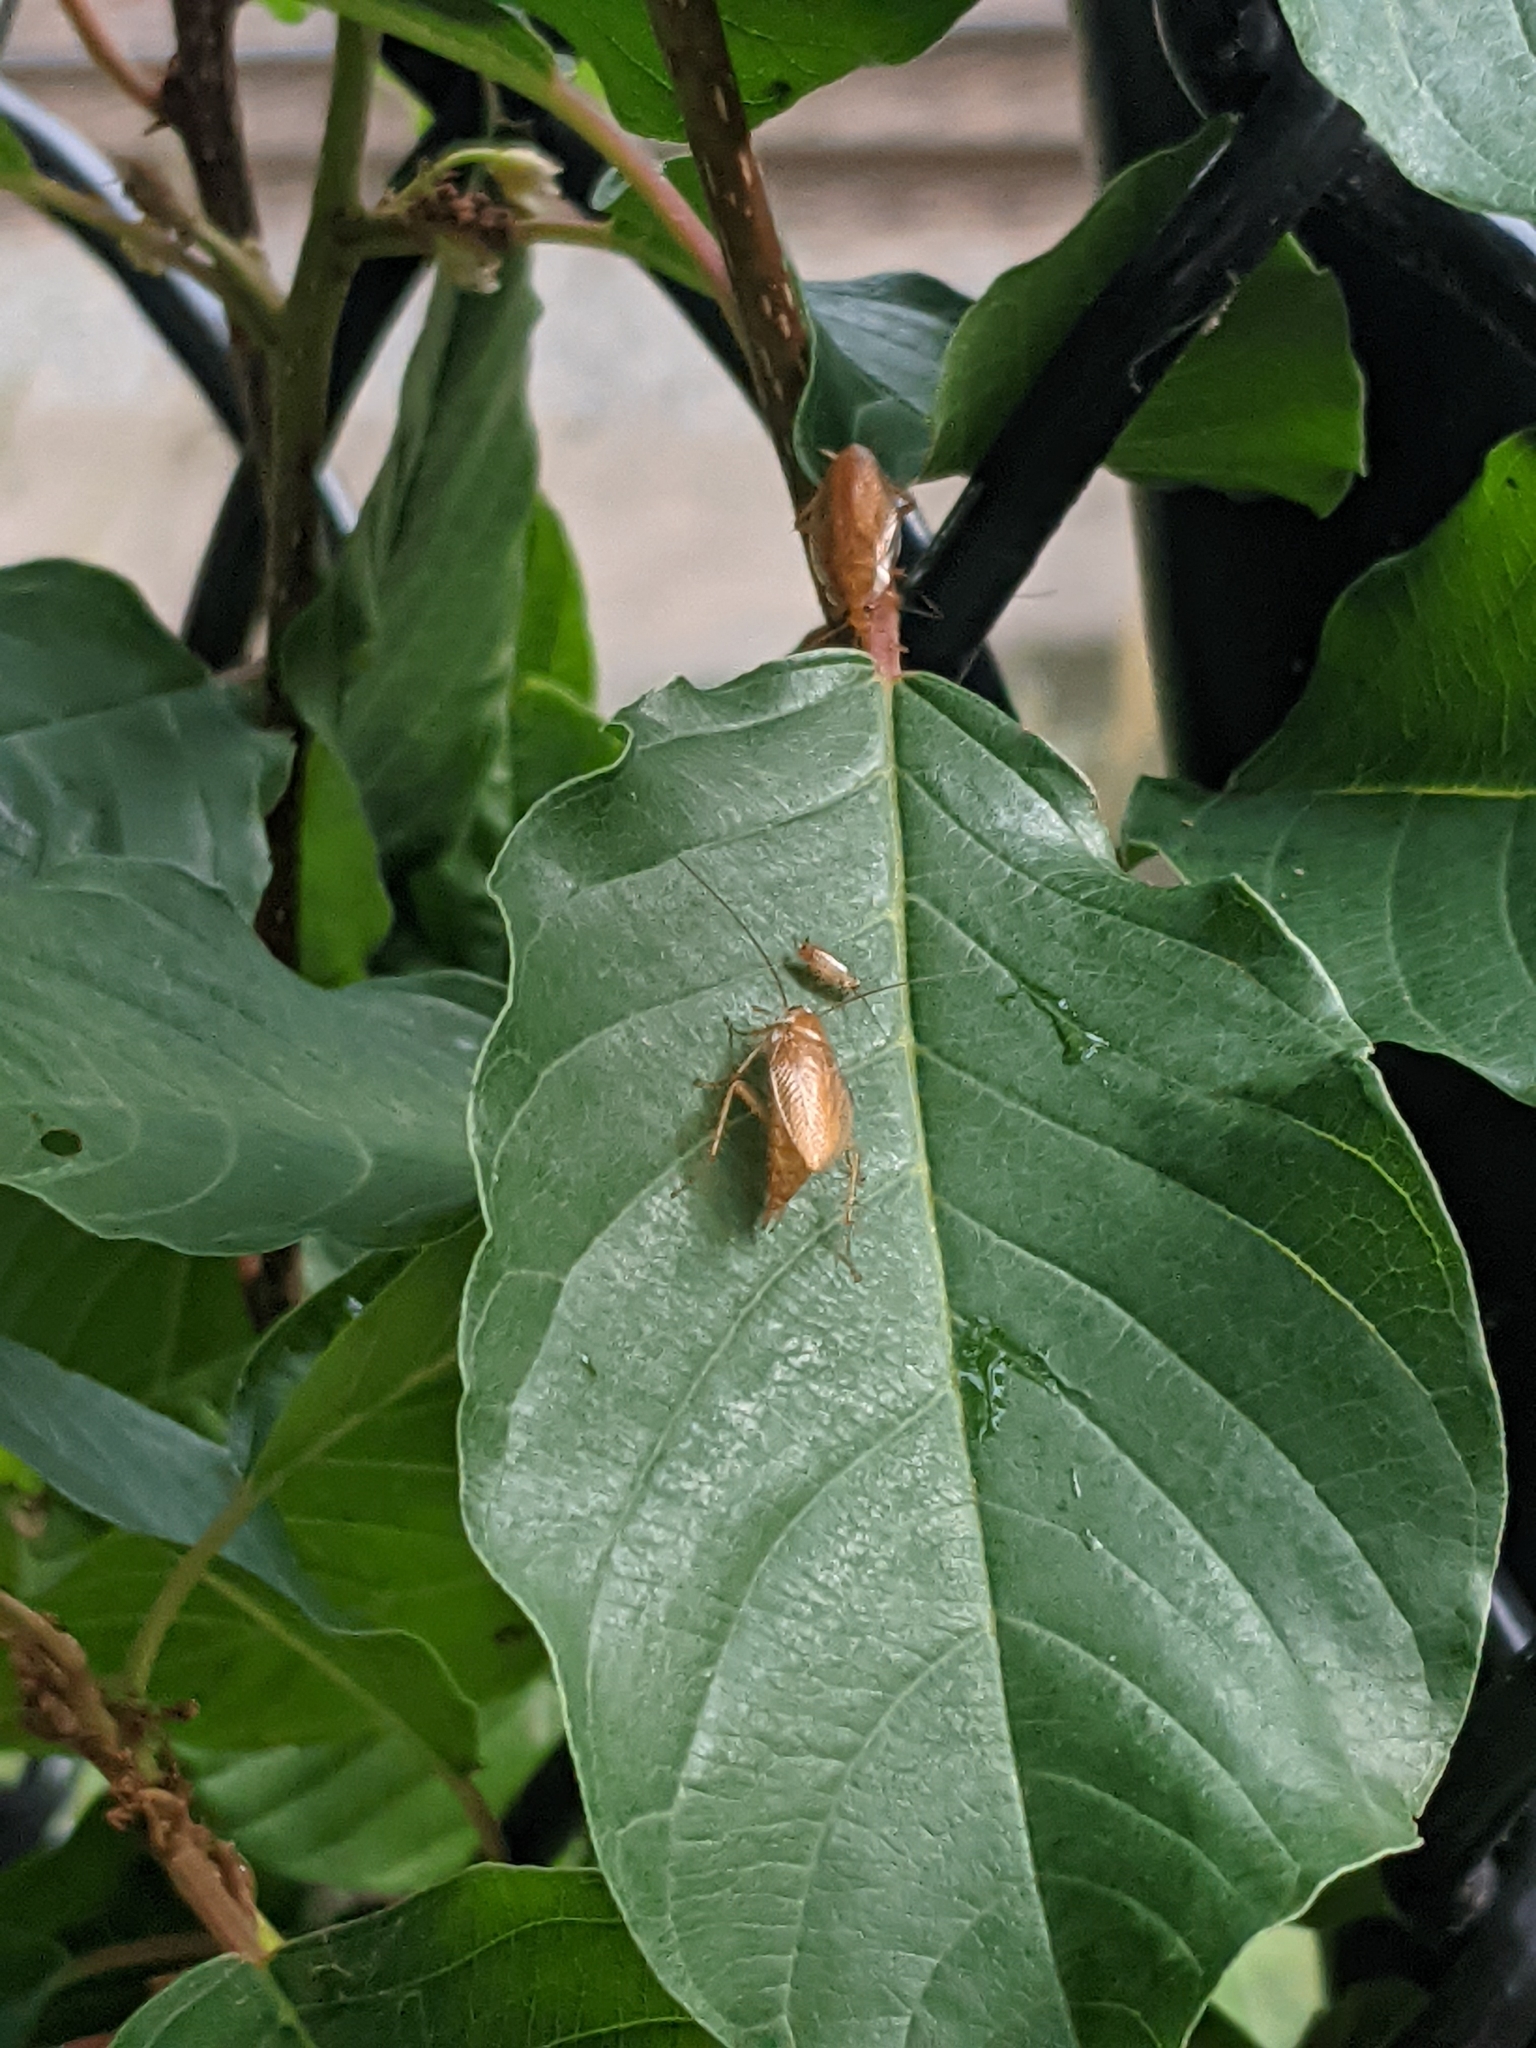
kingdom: Animalia
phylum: Arthropoda
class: Insecta
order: Blattodea
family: Ectobiidae
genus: Ectobius
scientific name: Ectobius pallidus
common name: Tawny cockroach
